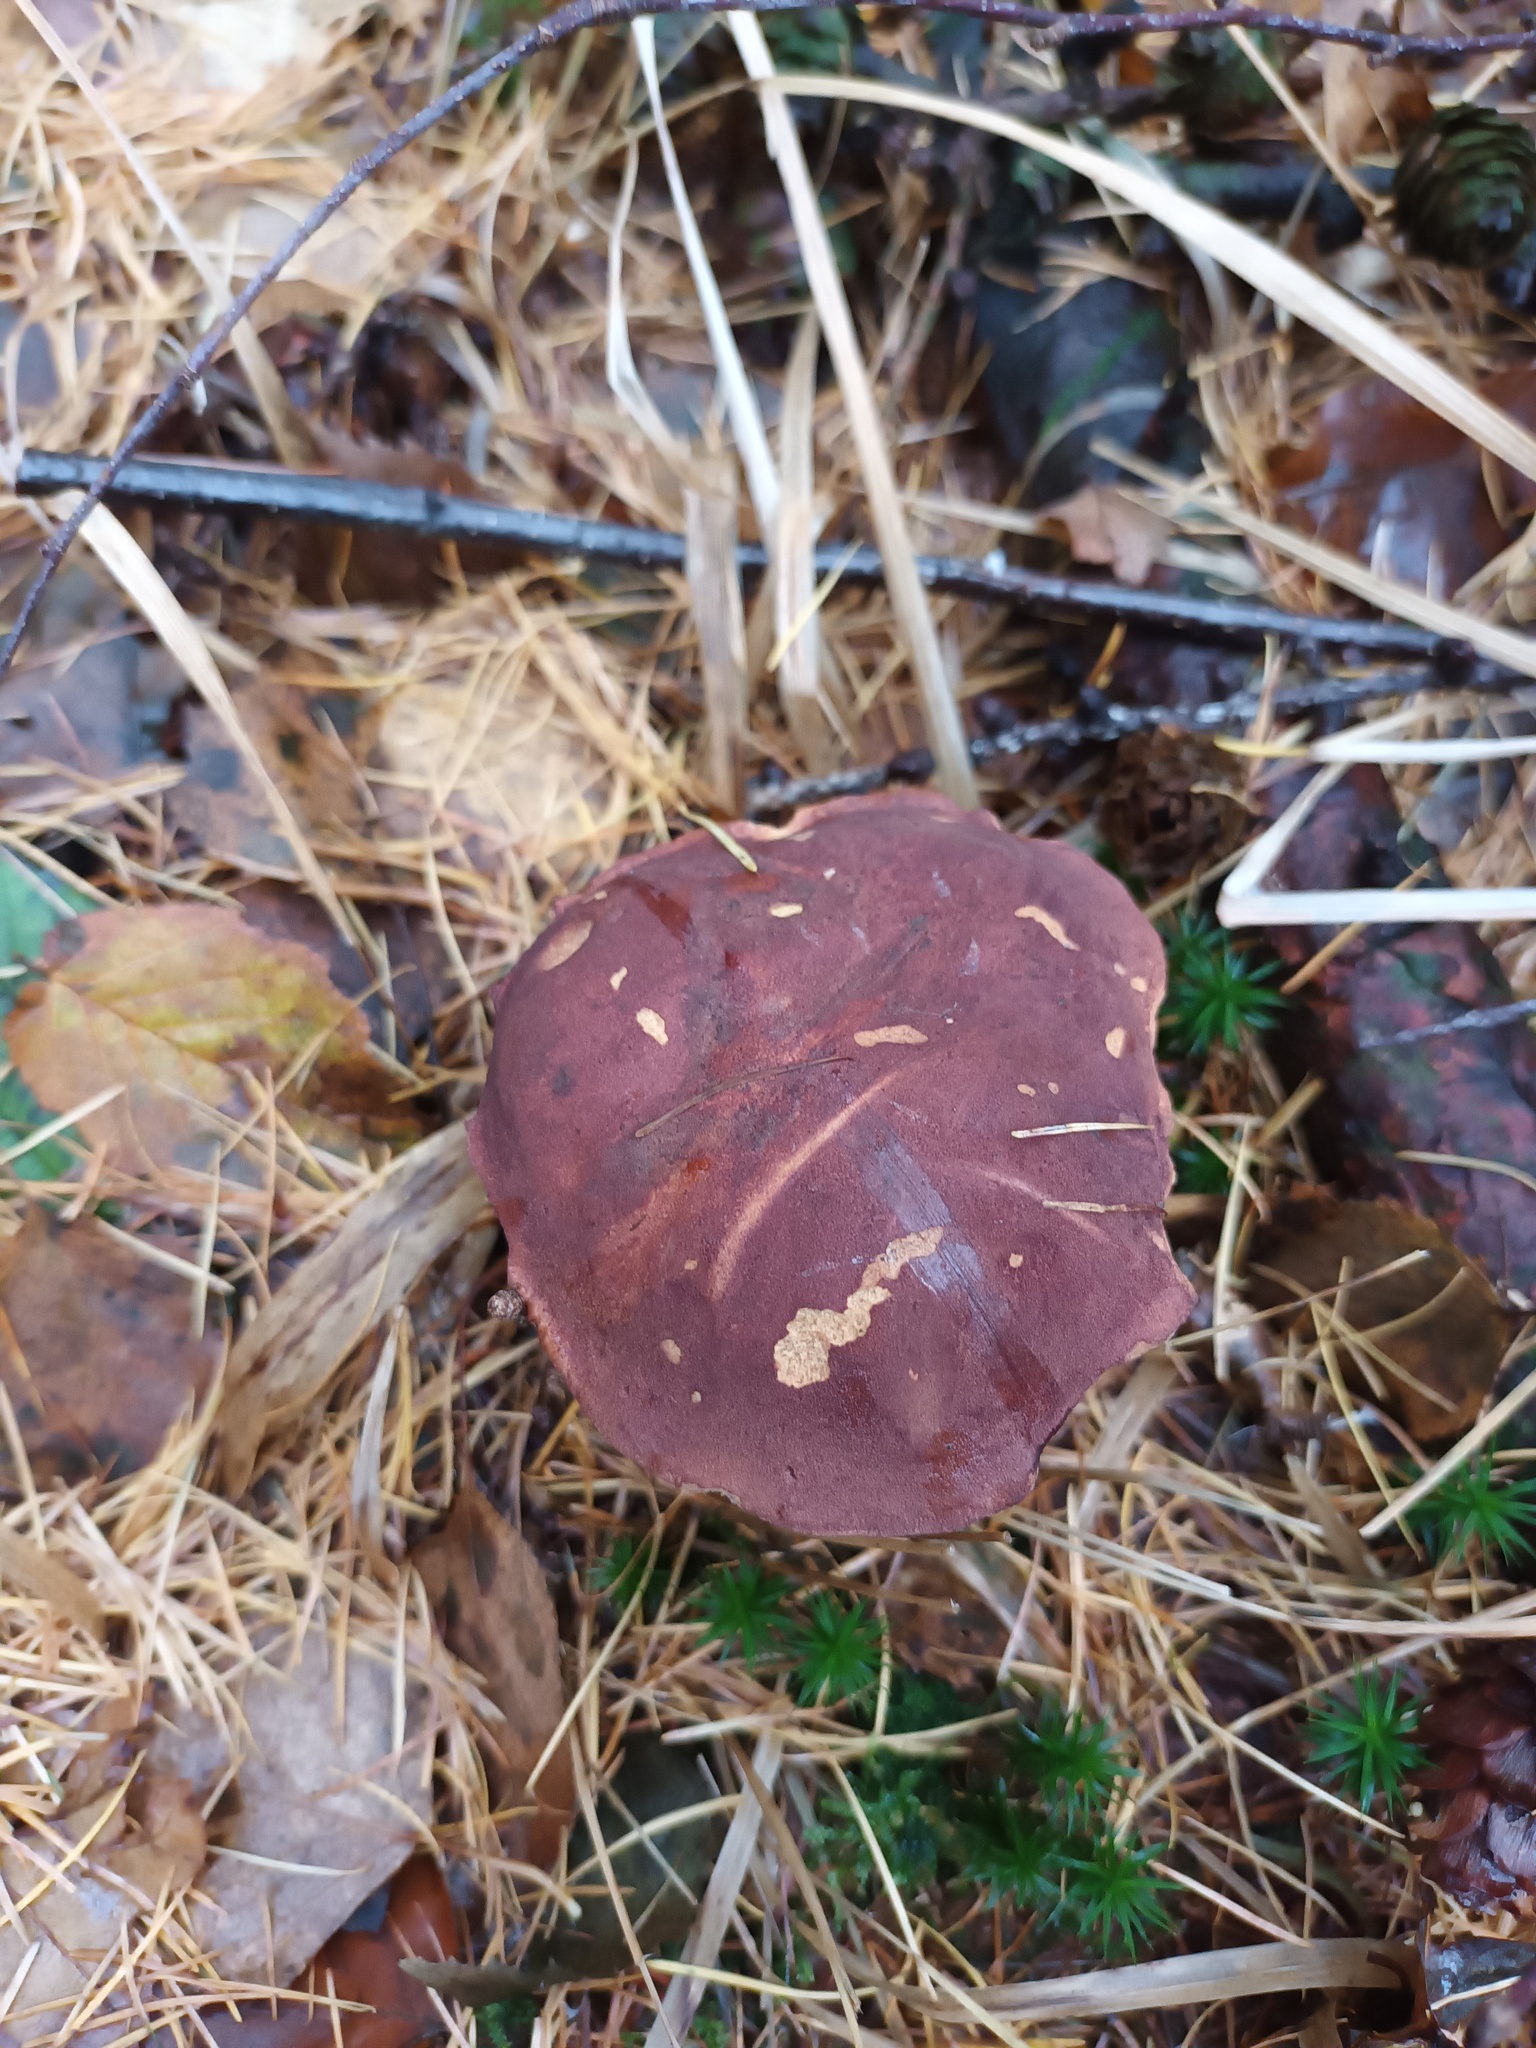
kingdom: Fungi
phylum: Basidiomycota
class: Agaricomycetes
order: Boletales
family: Boletaceae
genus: Imleria
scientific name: Imleria badia
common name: Bay bolete
